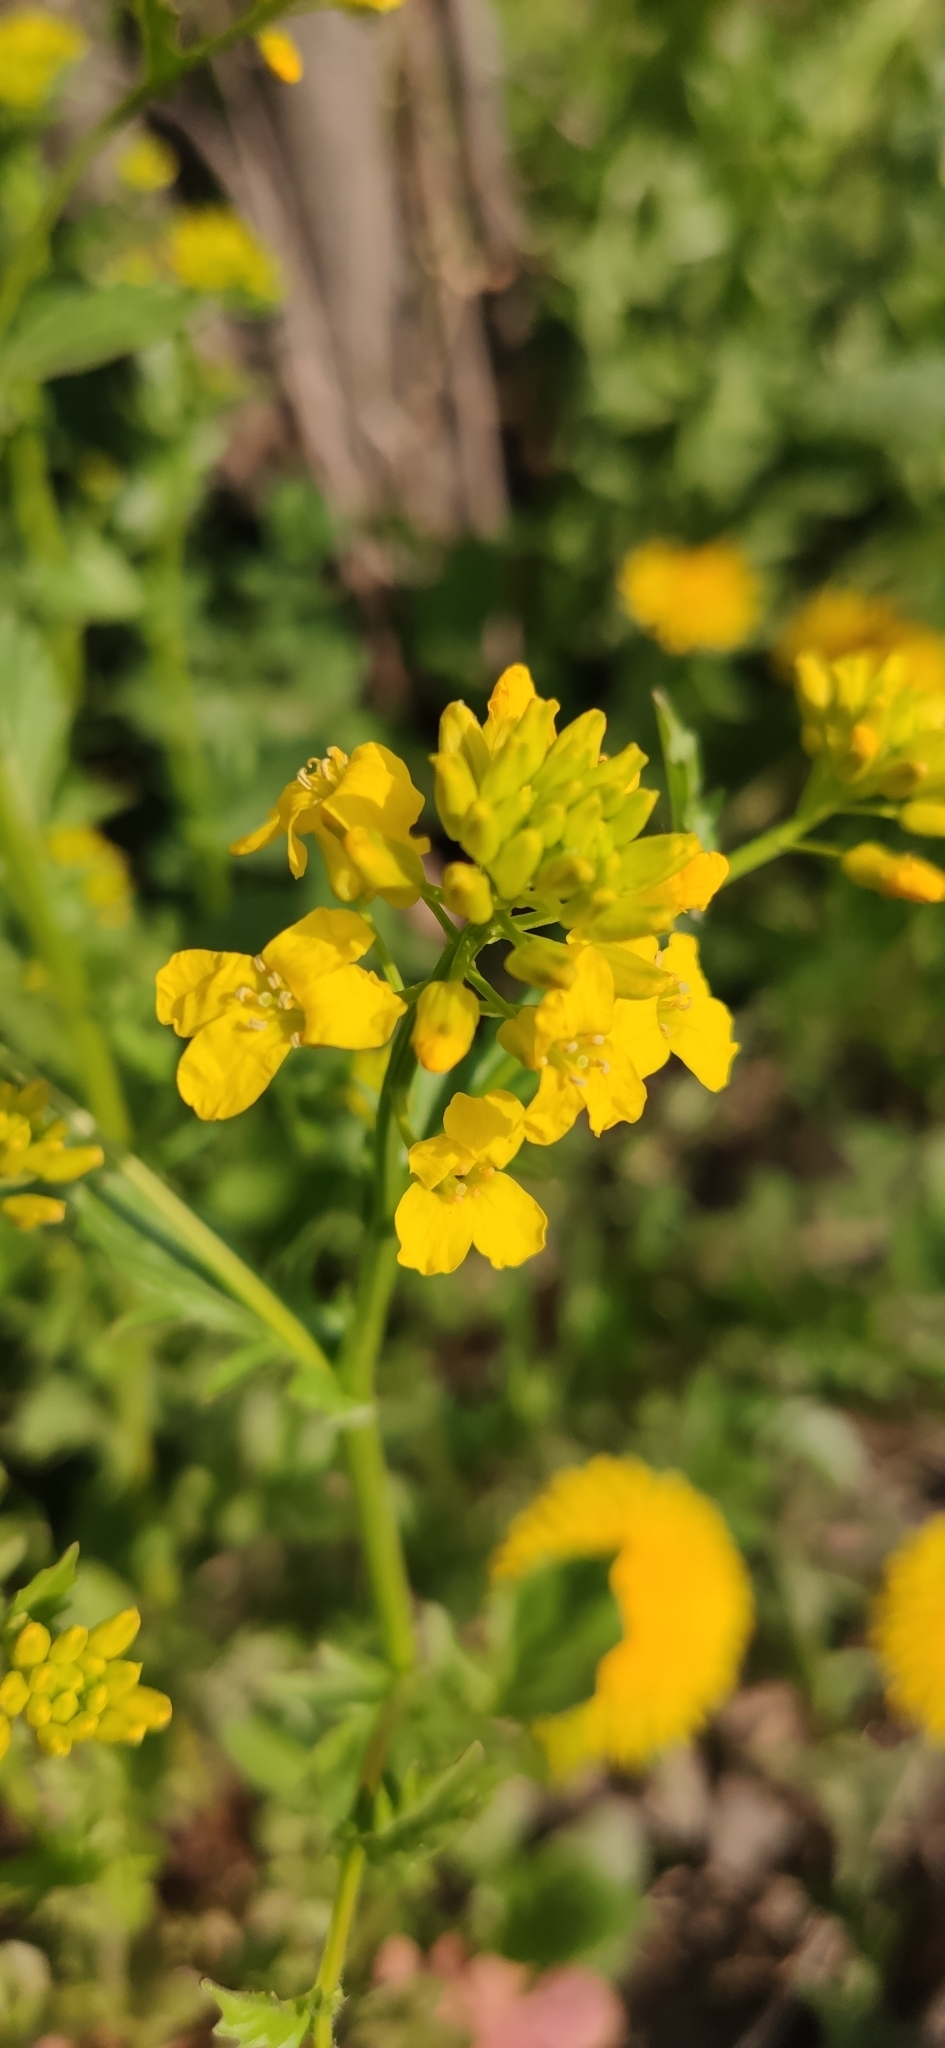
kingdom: Plantae
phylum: Tracheophyta
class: Magnoliopsida
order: Brassicales
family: Brassicaceae
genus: Barbarea
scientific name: Barbarea vulgaris
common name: Cressy-greens
